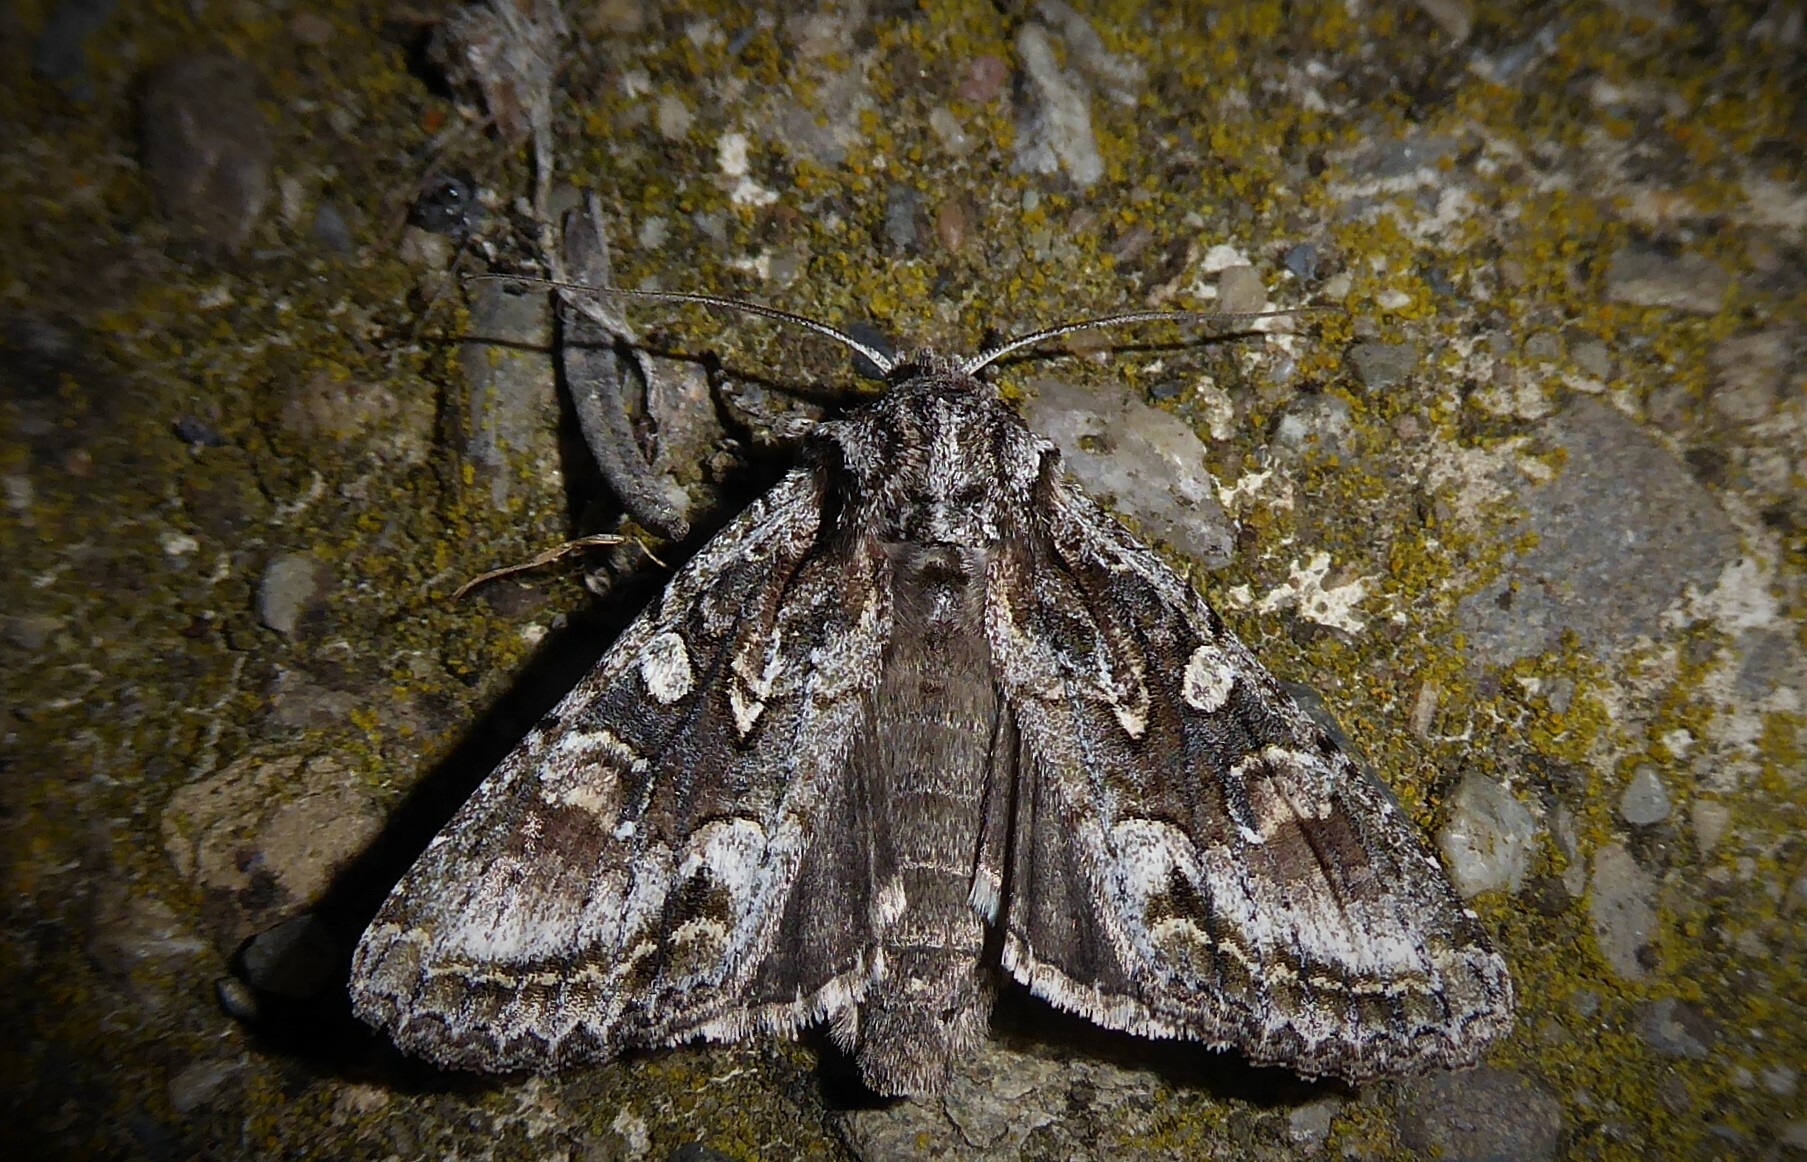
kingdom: Animalia
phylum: Arthropoda
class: Insecta
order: Lepidoptera
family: Noctuidae
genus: Ichneutica
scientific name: Ichneutica mutans
